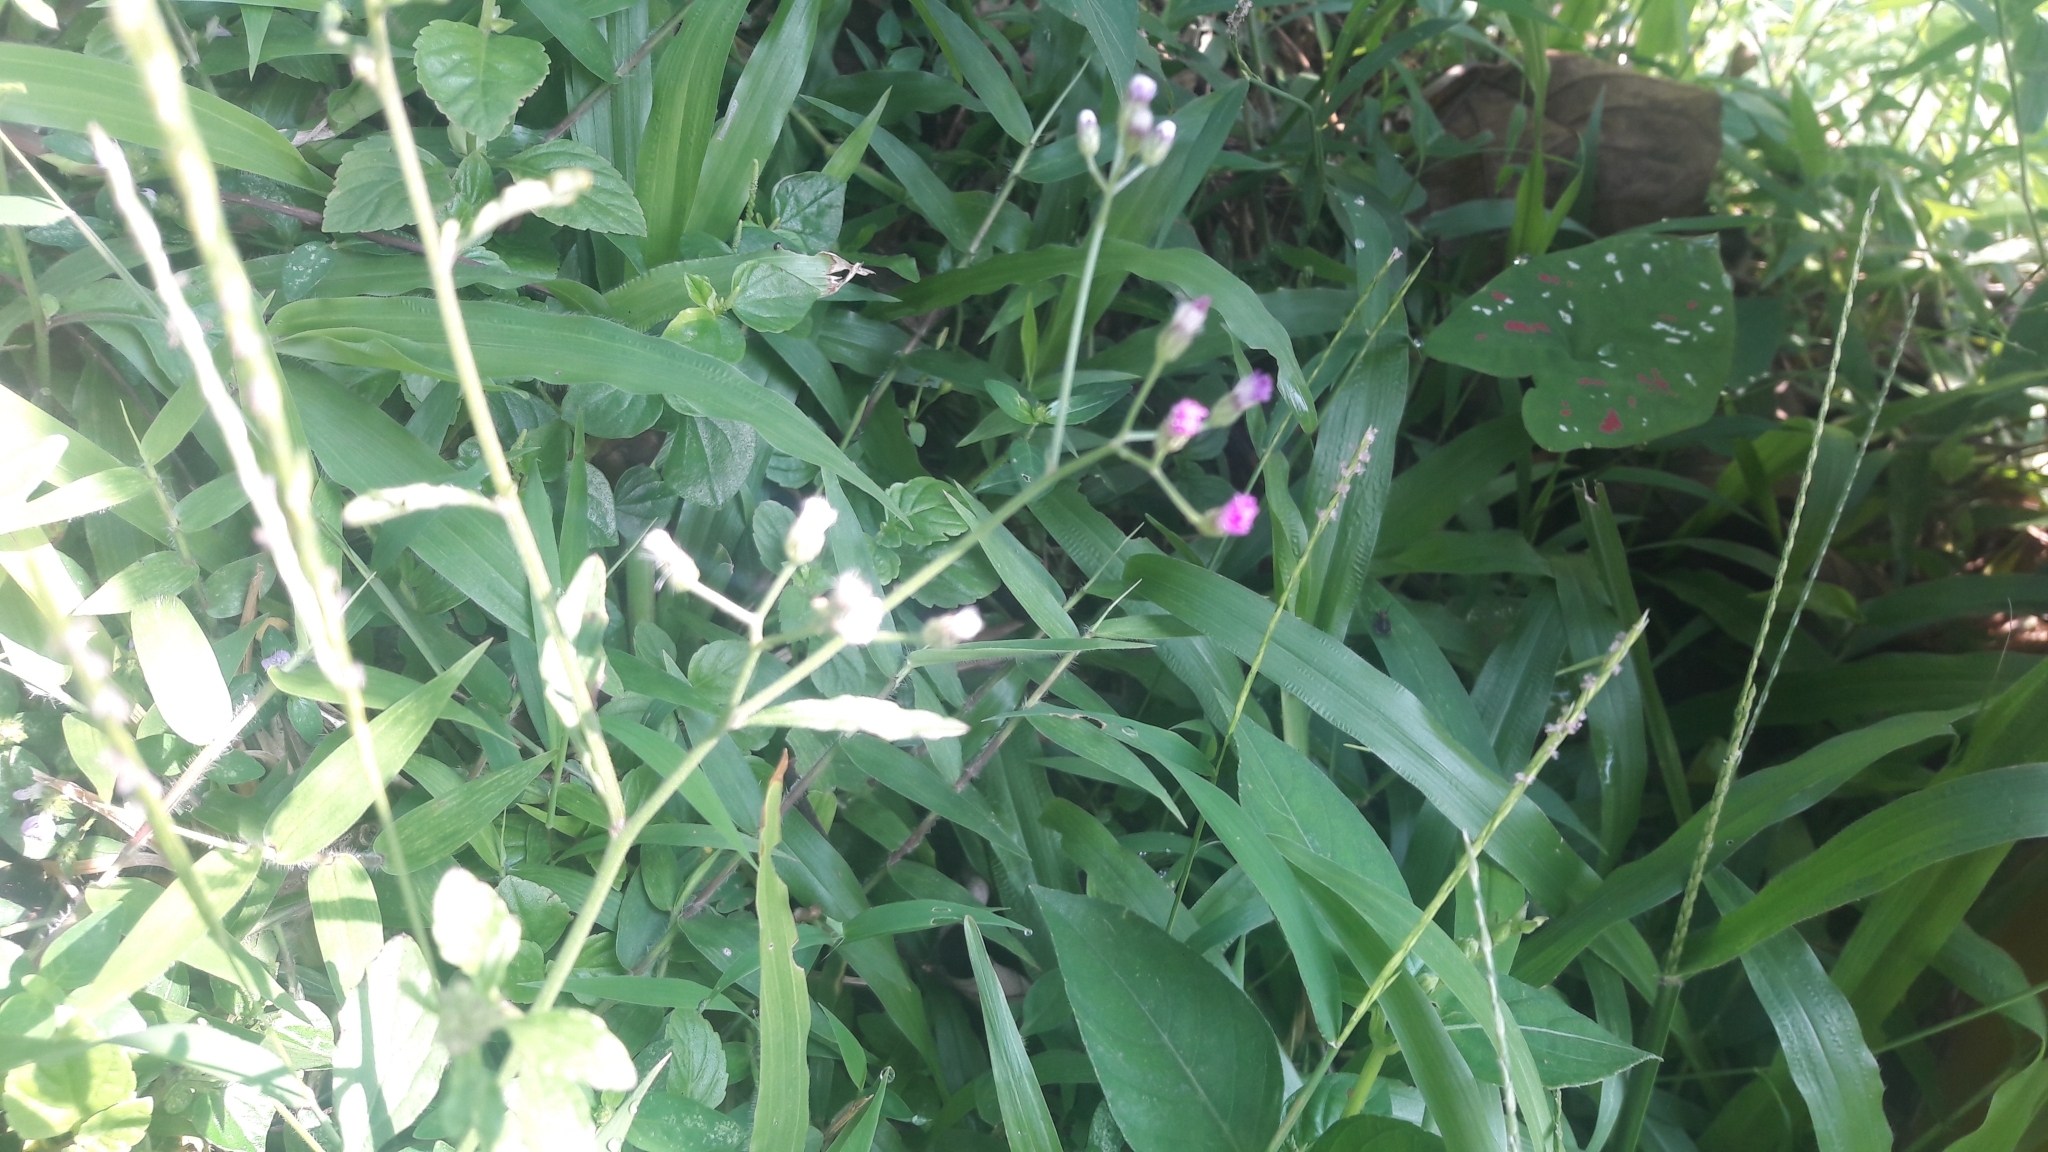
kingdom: Plantae
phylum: Tracheophyta
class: Magnoliopsida
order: Asterales
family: Asteraceae
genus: Cyanthillium
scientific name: Cyanthillium cinereum
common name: Little ironweed
